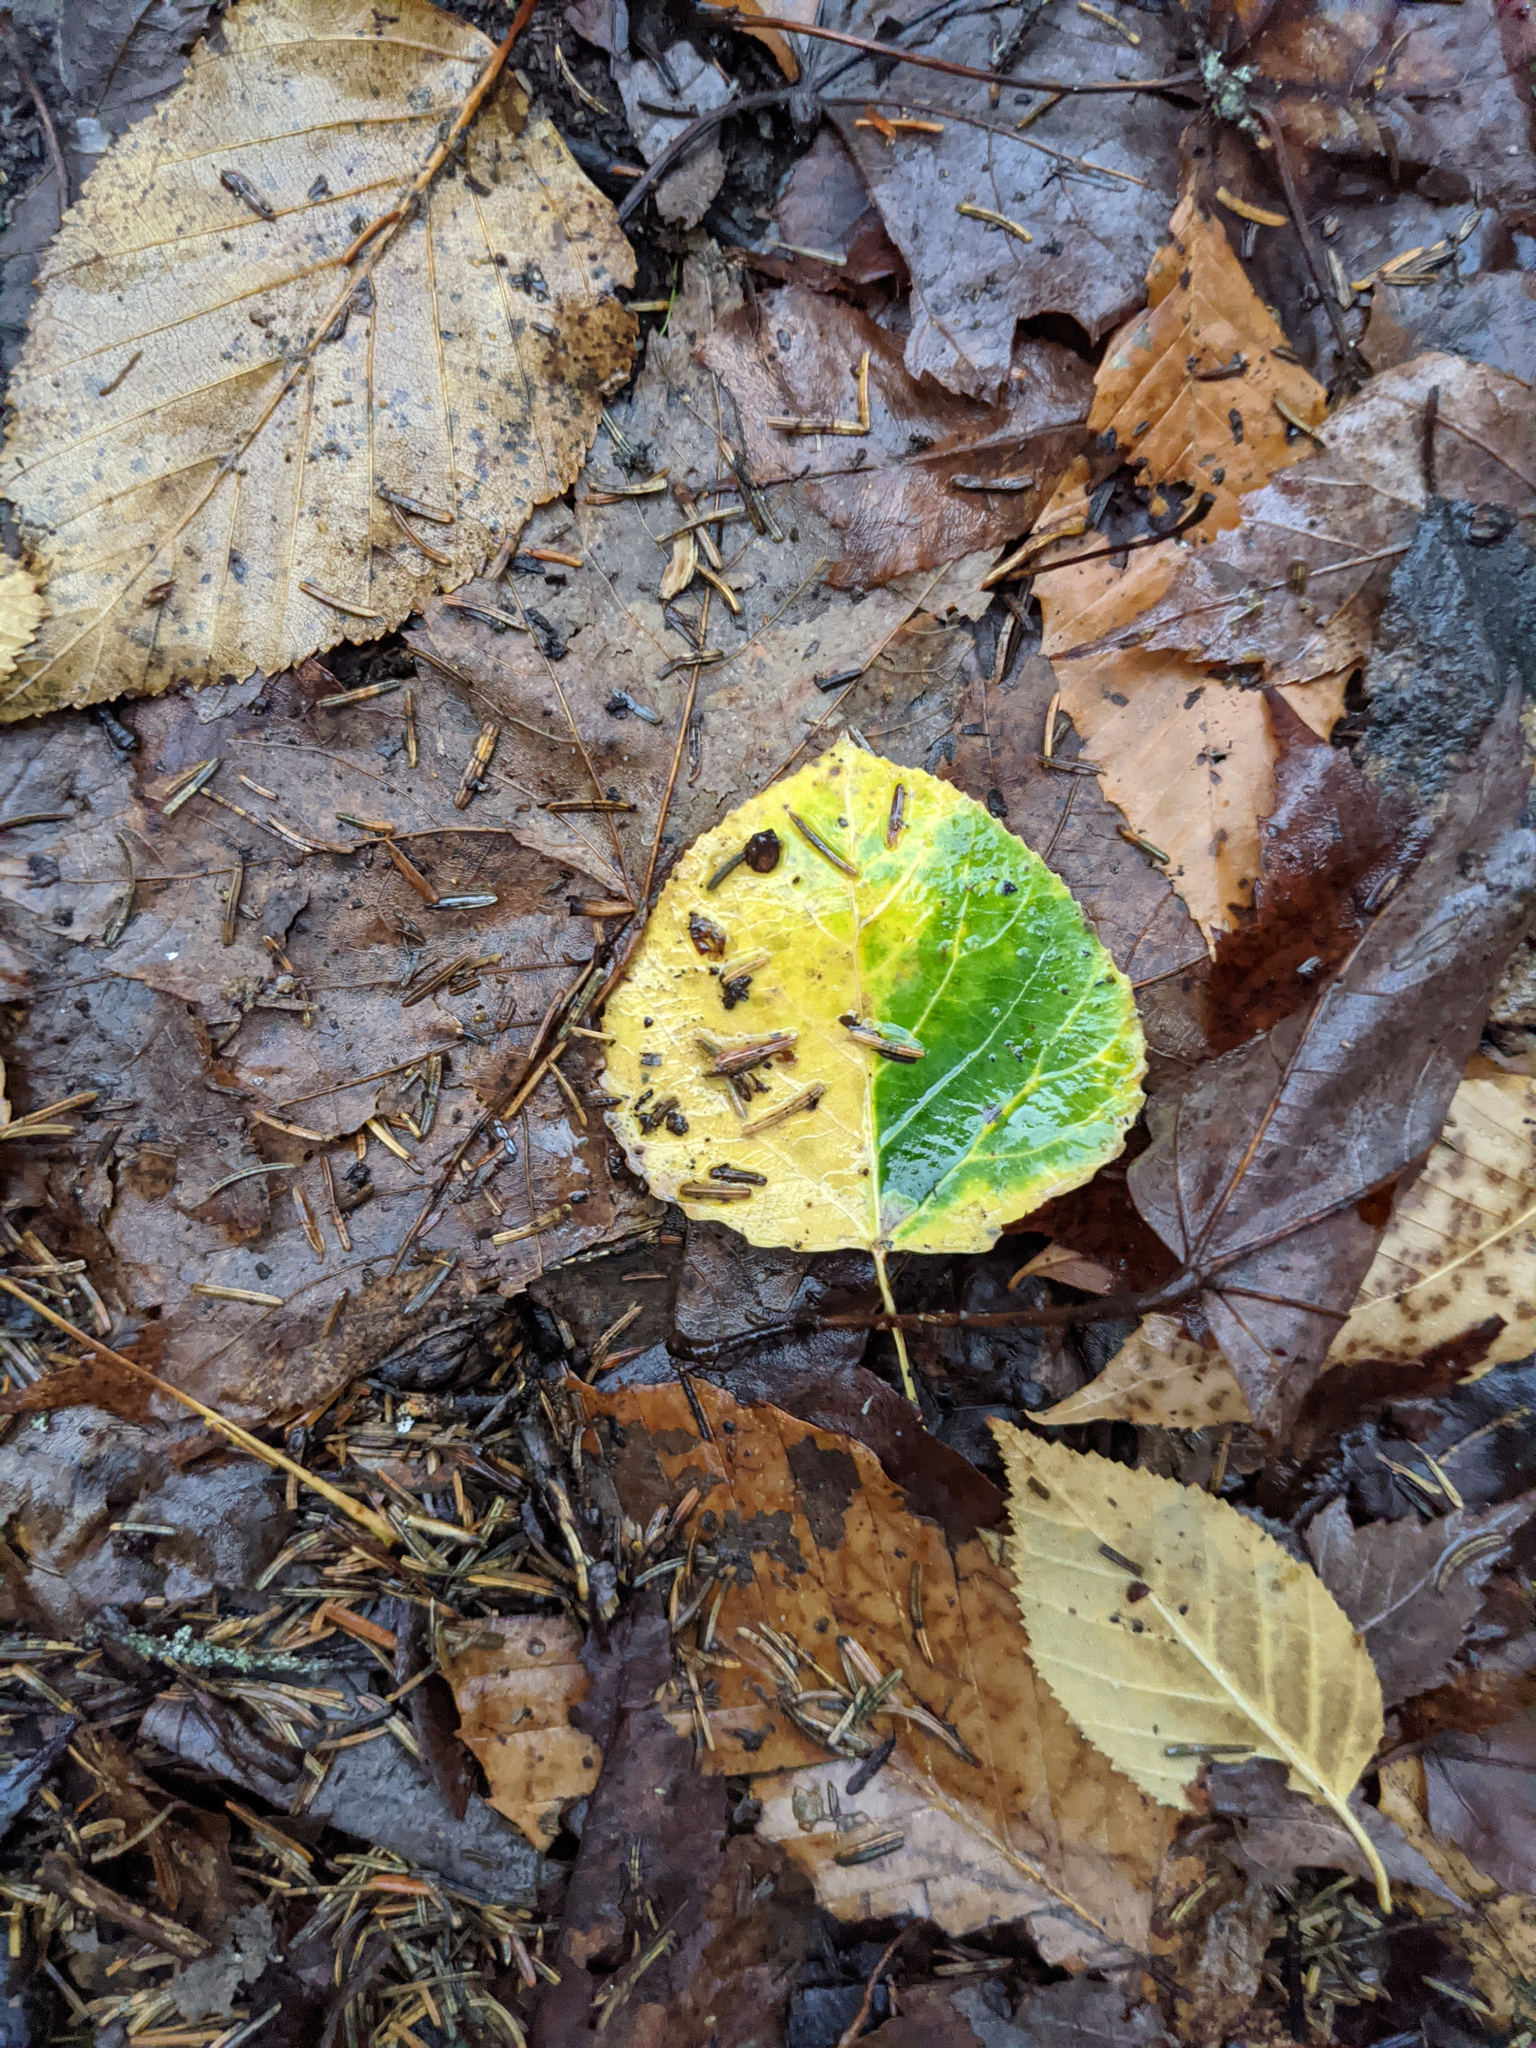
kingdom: Plantae
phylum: Tracheophyta
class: Magnoliopsida
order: Malpighiales
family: Salicaceae
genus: Populus
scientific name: Populus tremuloides
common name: Quaking aspen
